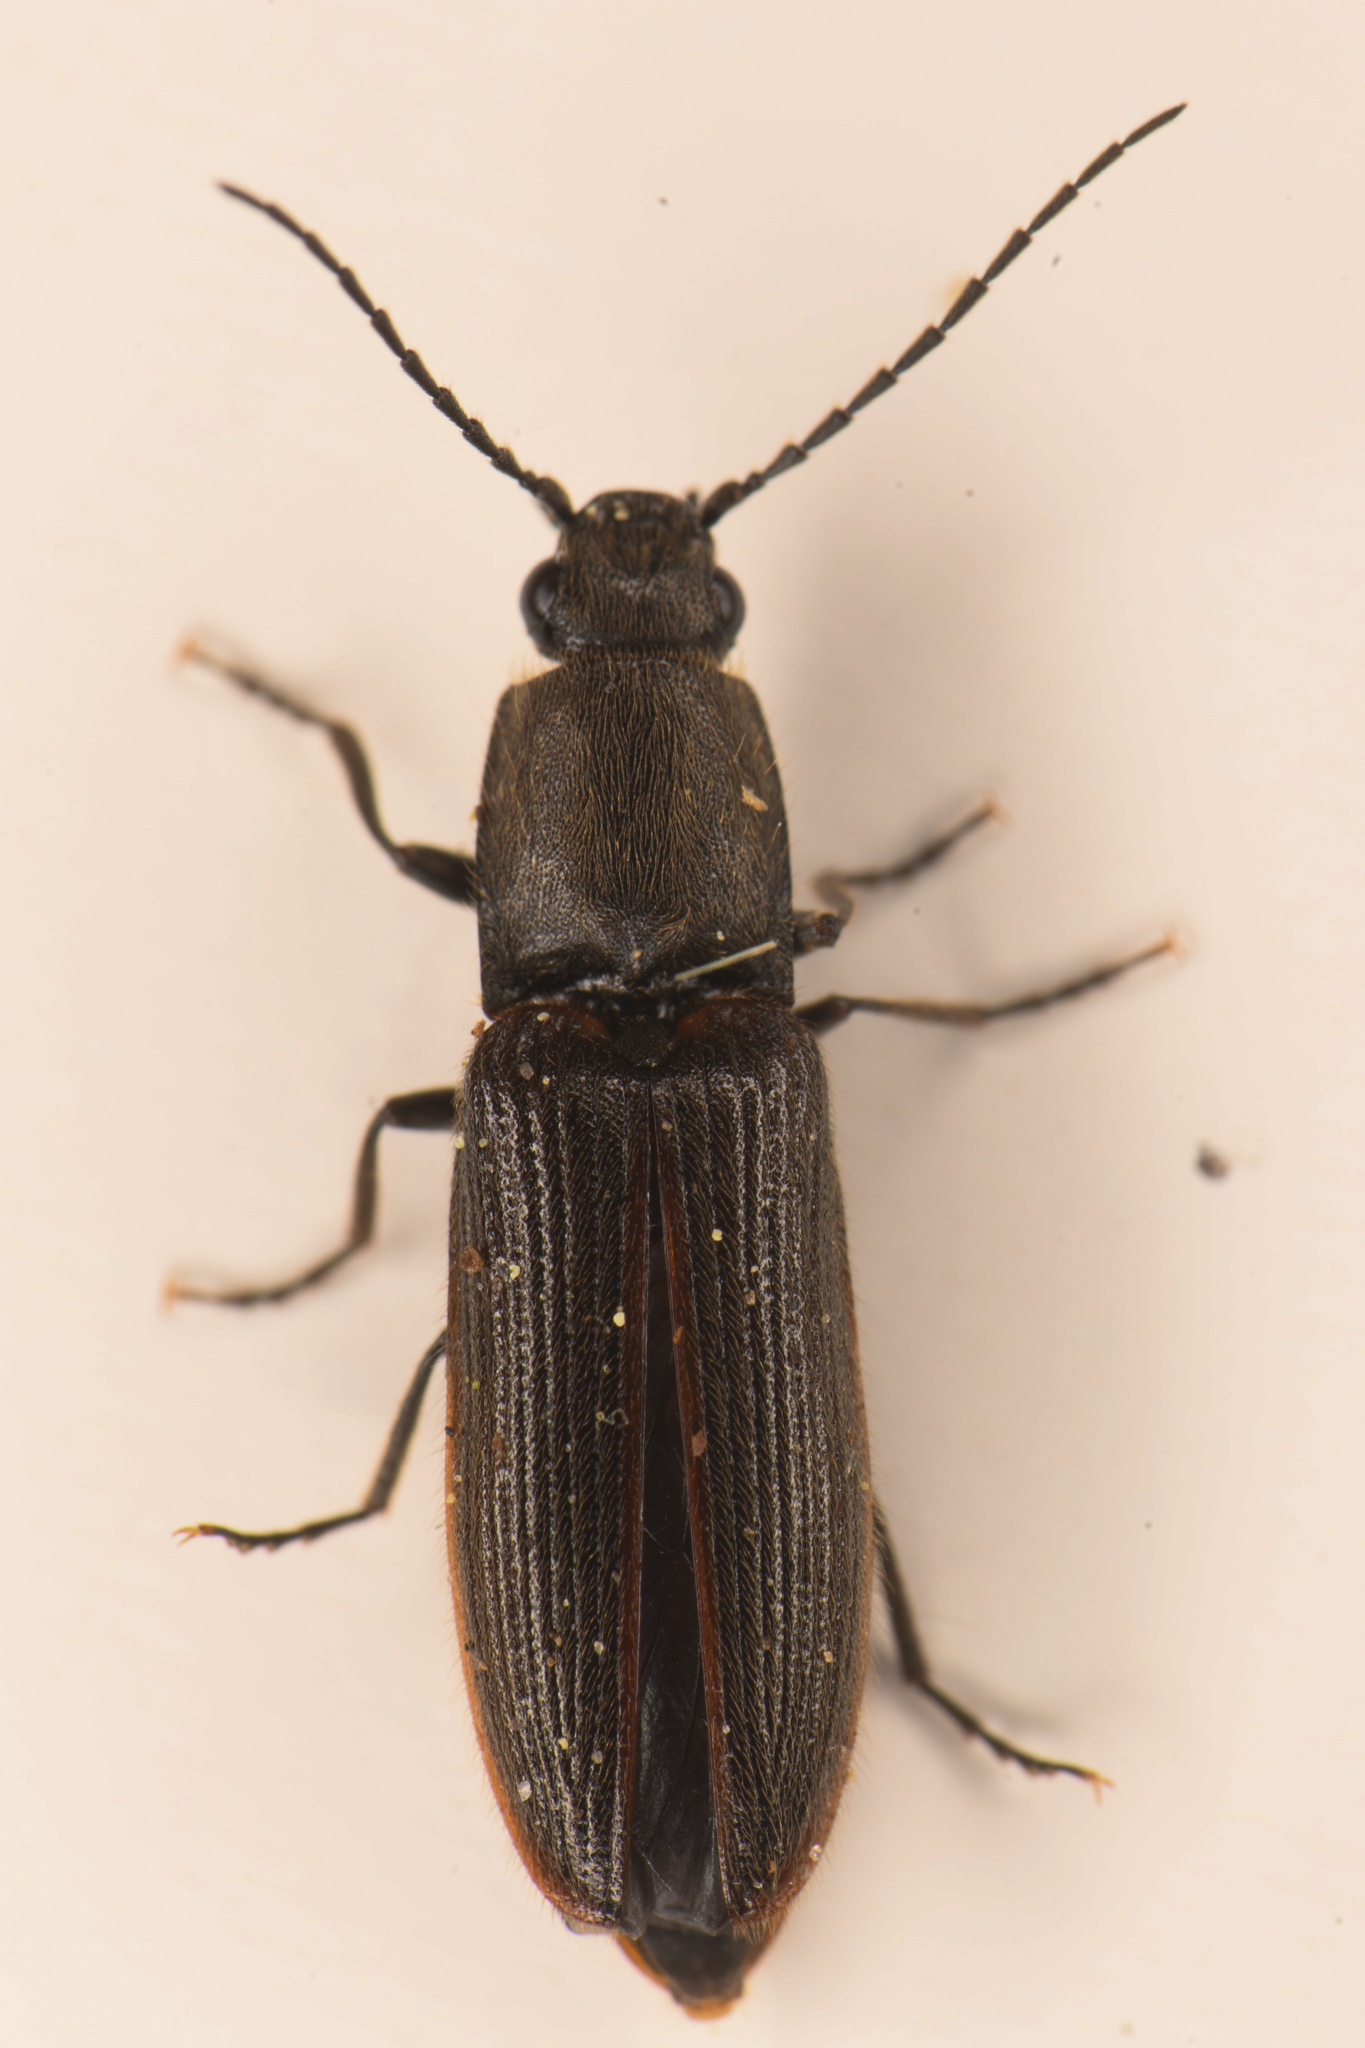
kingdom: Animalia
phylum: Arthropoda
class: Insecta
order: Coleoptera
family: Elateridae
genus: Athous
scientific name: Athous sierrae
